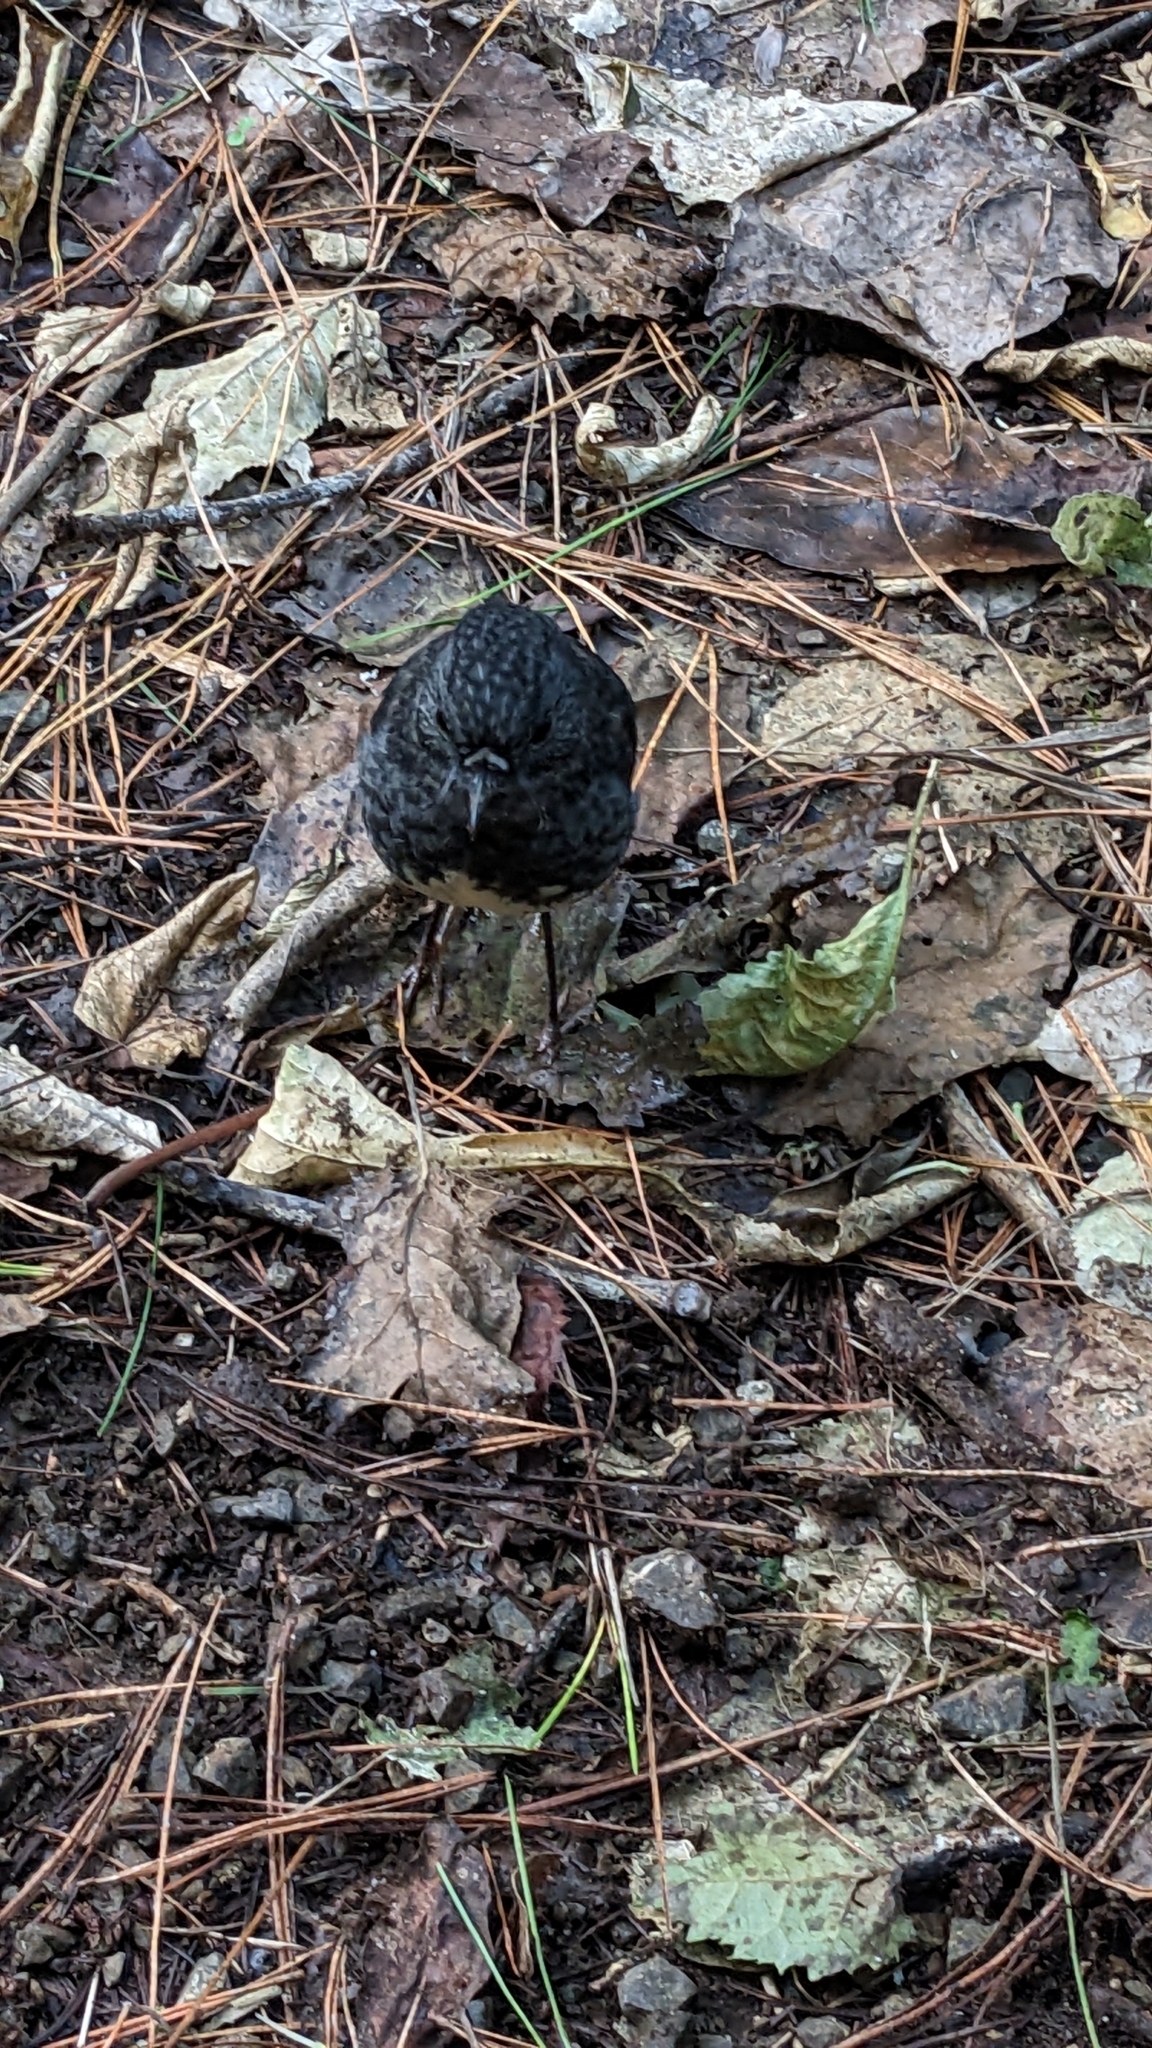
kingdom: Animalia
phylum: Chordata
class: Aves
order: Passeriformes
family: Petroicidae
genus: Petroica
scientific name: Petroica australis
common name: New zealand robin
